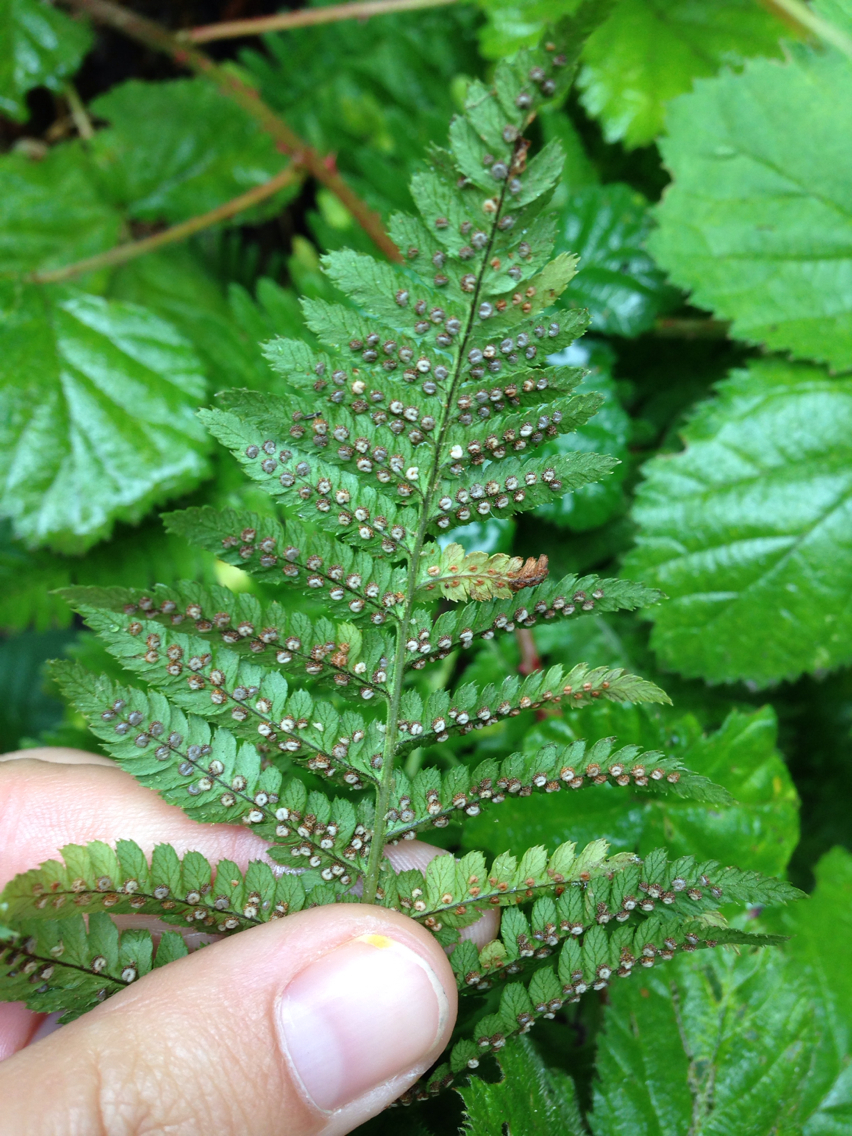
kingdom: Plantae
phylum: Tracheophyta
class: Polypodiopsida
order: Polypodiales
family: Dryopteridaceae
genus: Dryopteris
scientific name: Dryopteris arguta
